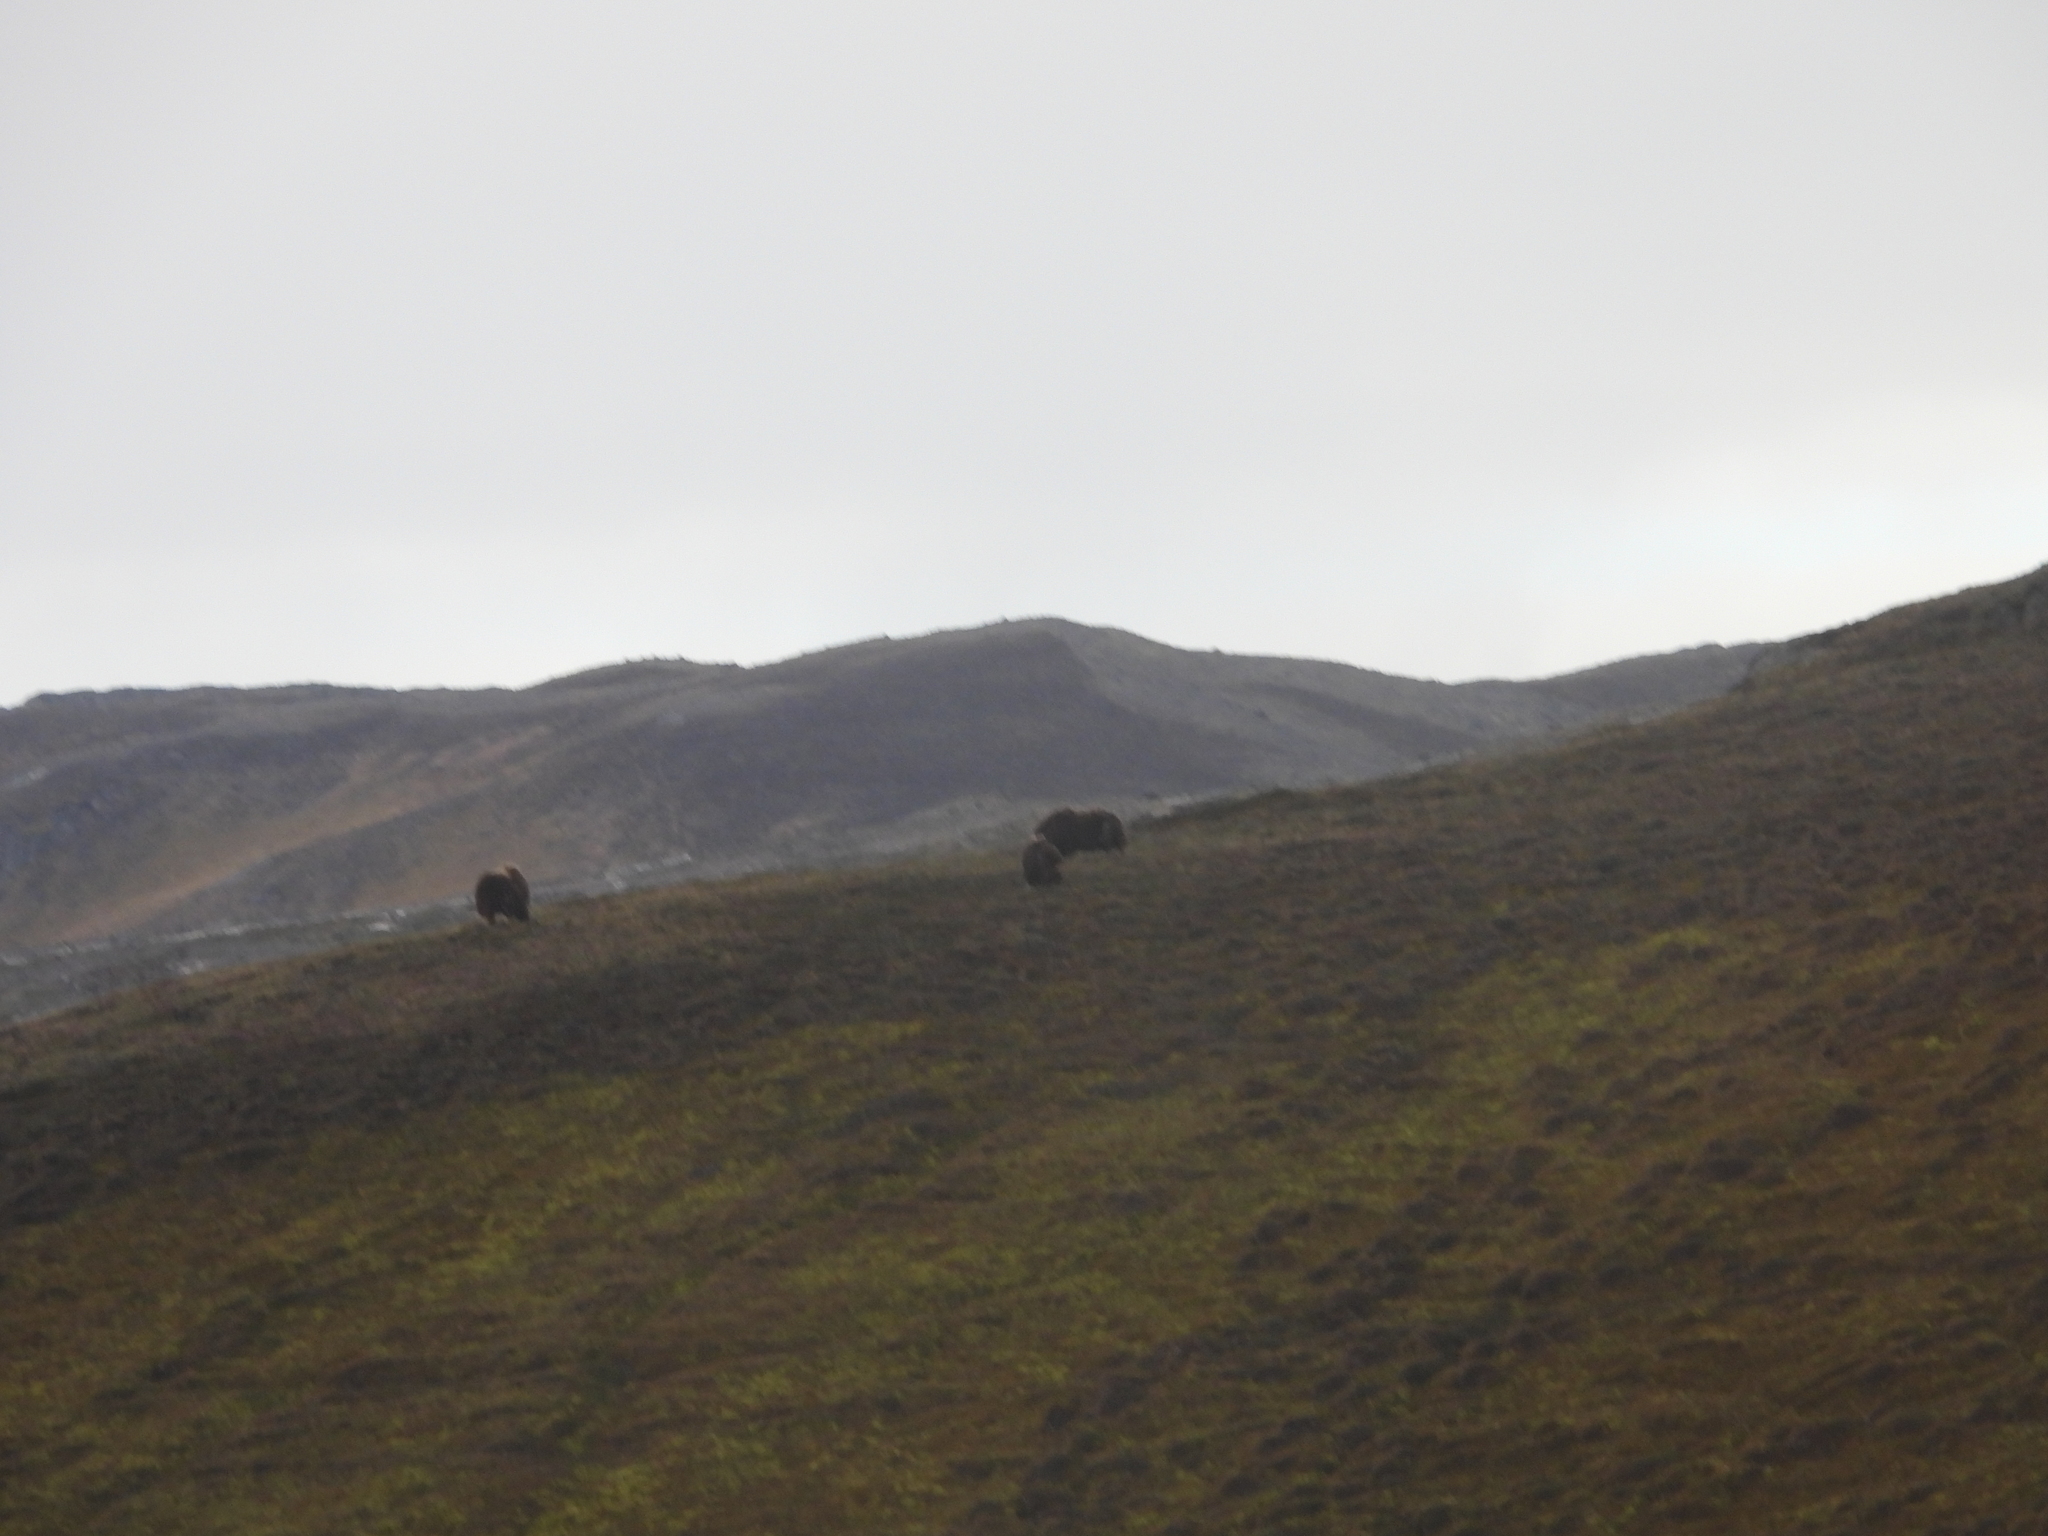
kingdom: Animalia
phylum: Chordata
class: Mammalia
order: Artiodactyla
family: Bovidae
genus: Ovibos
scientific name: Ovibos moschatus
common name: Muskox
